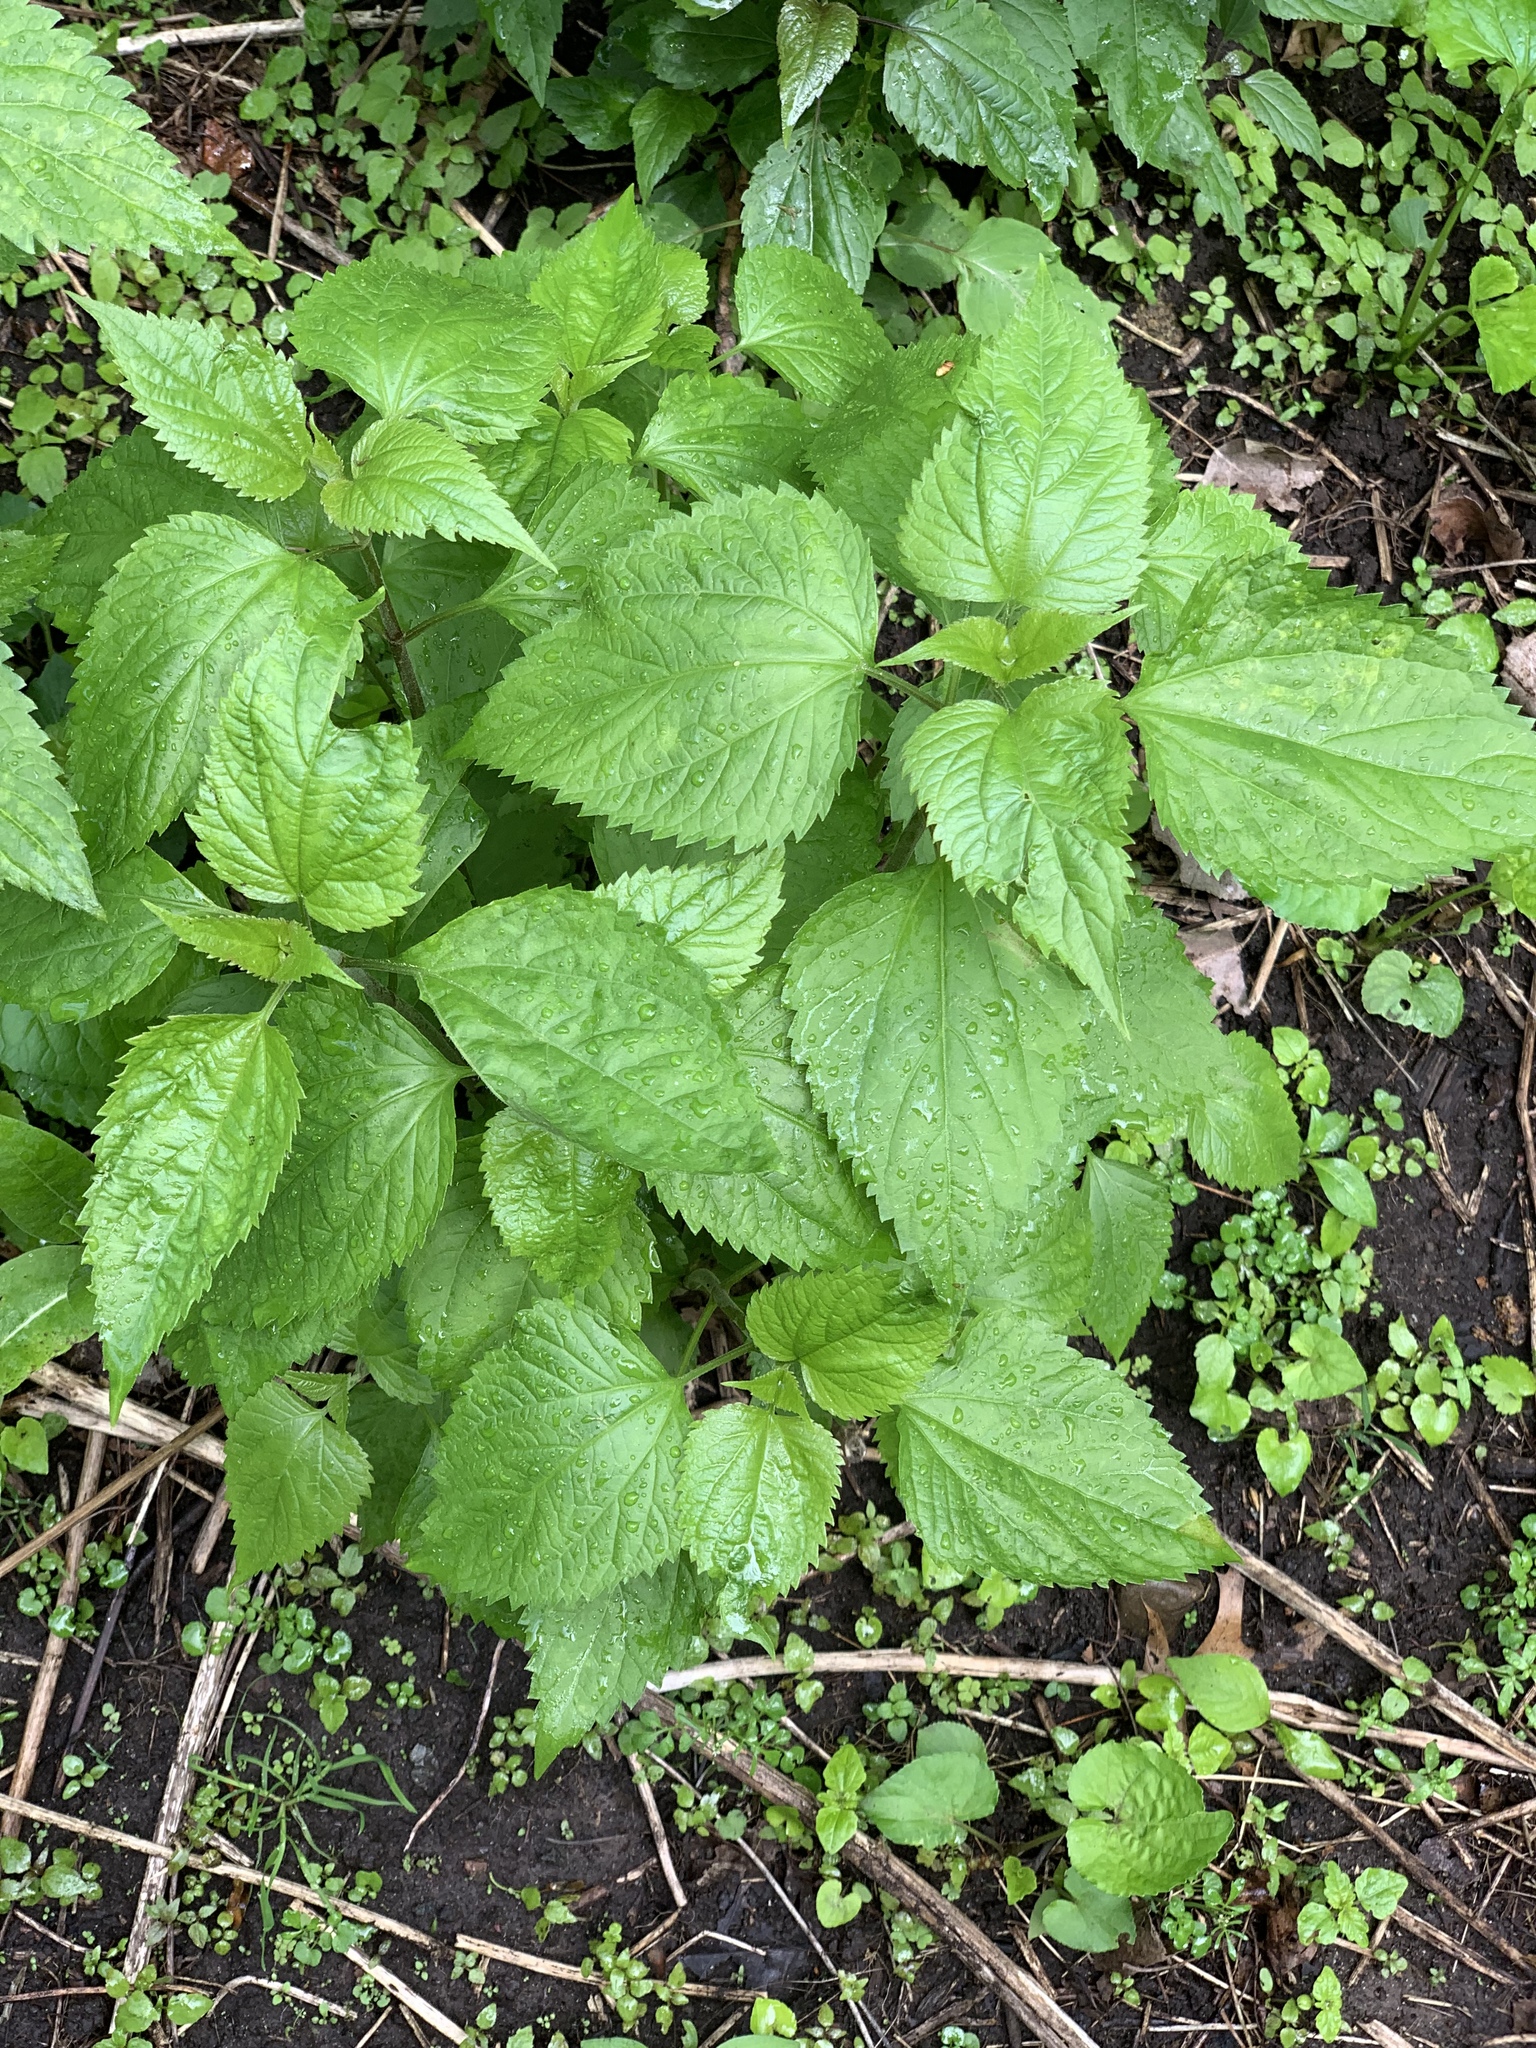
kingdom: Plantae
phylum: Tracheophyta
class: Magnoliopsida
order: Asterales
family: Asteraceae
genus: Ageratina
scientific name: Ageratina altissima
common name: White snakeroot
